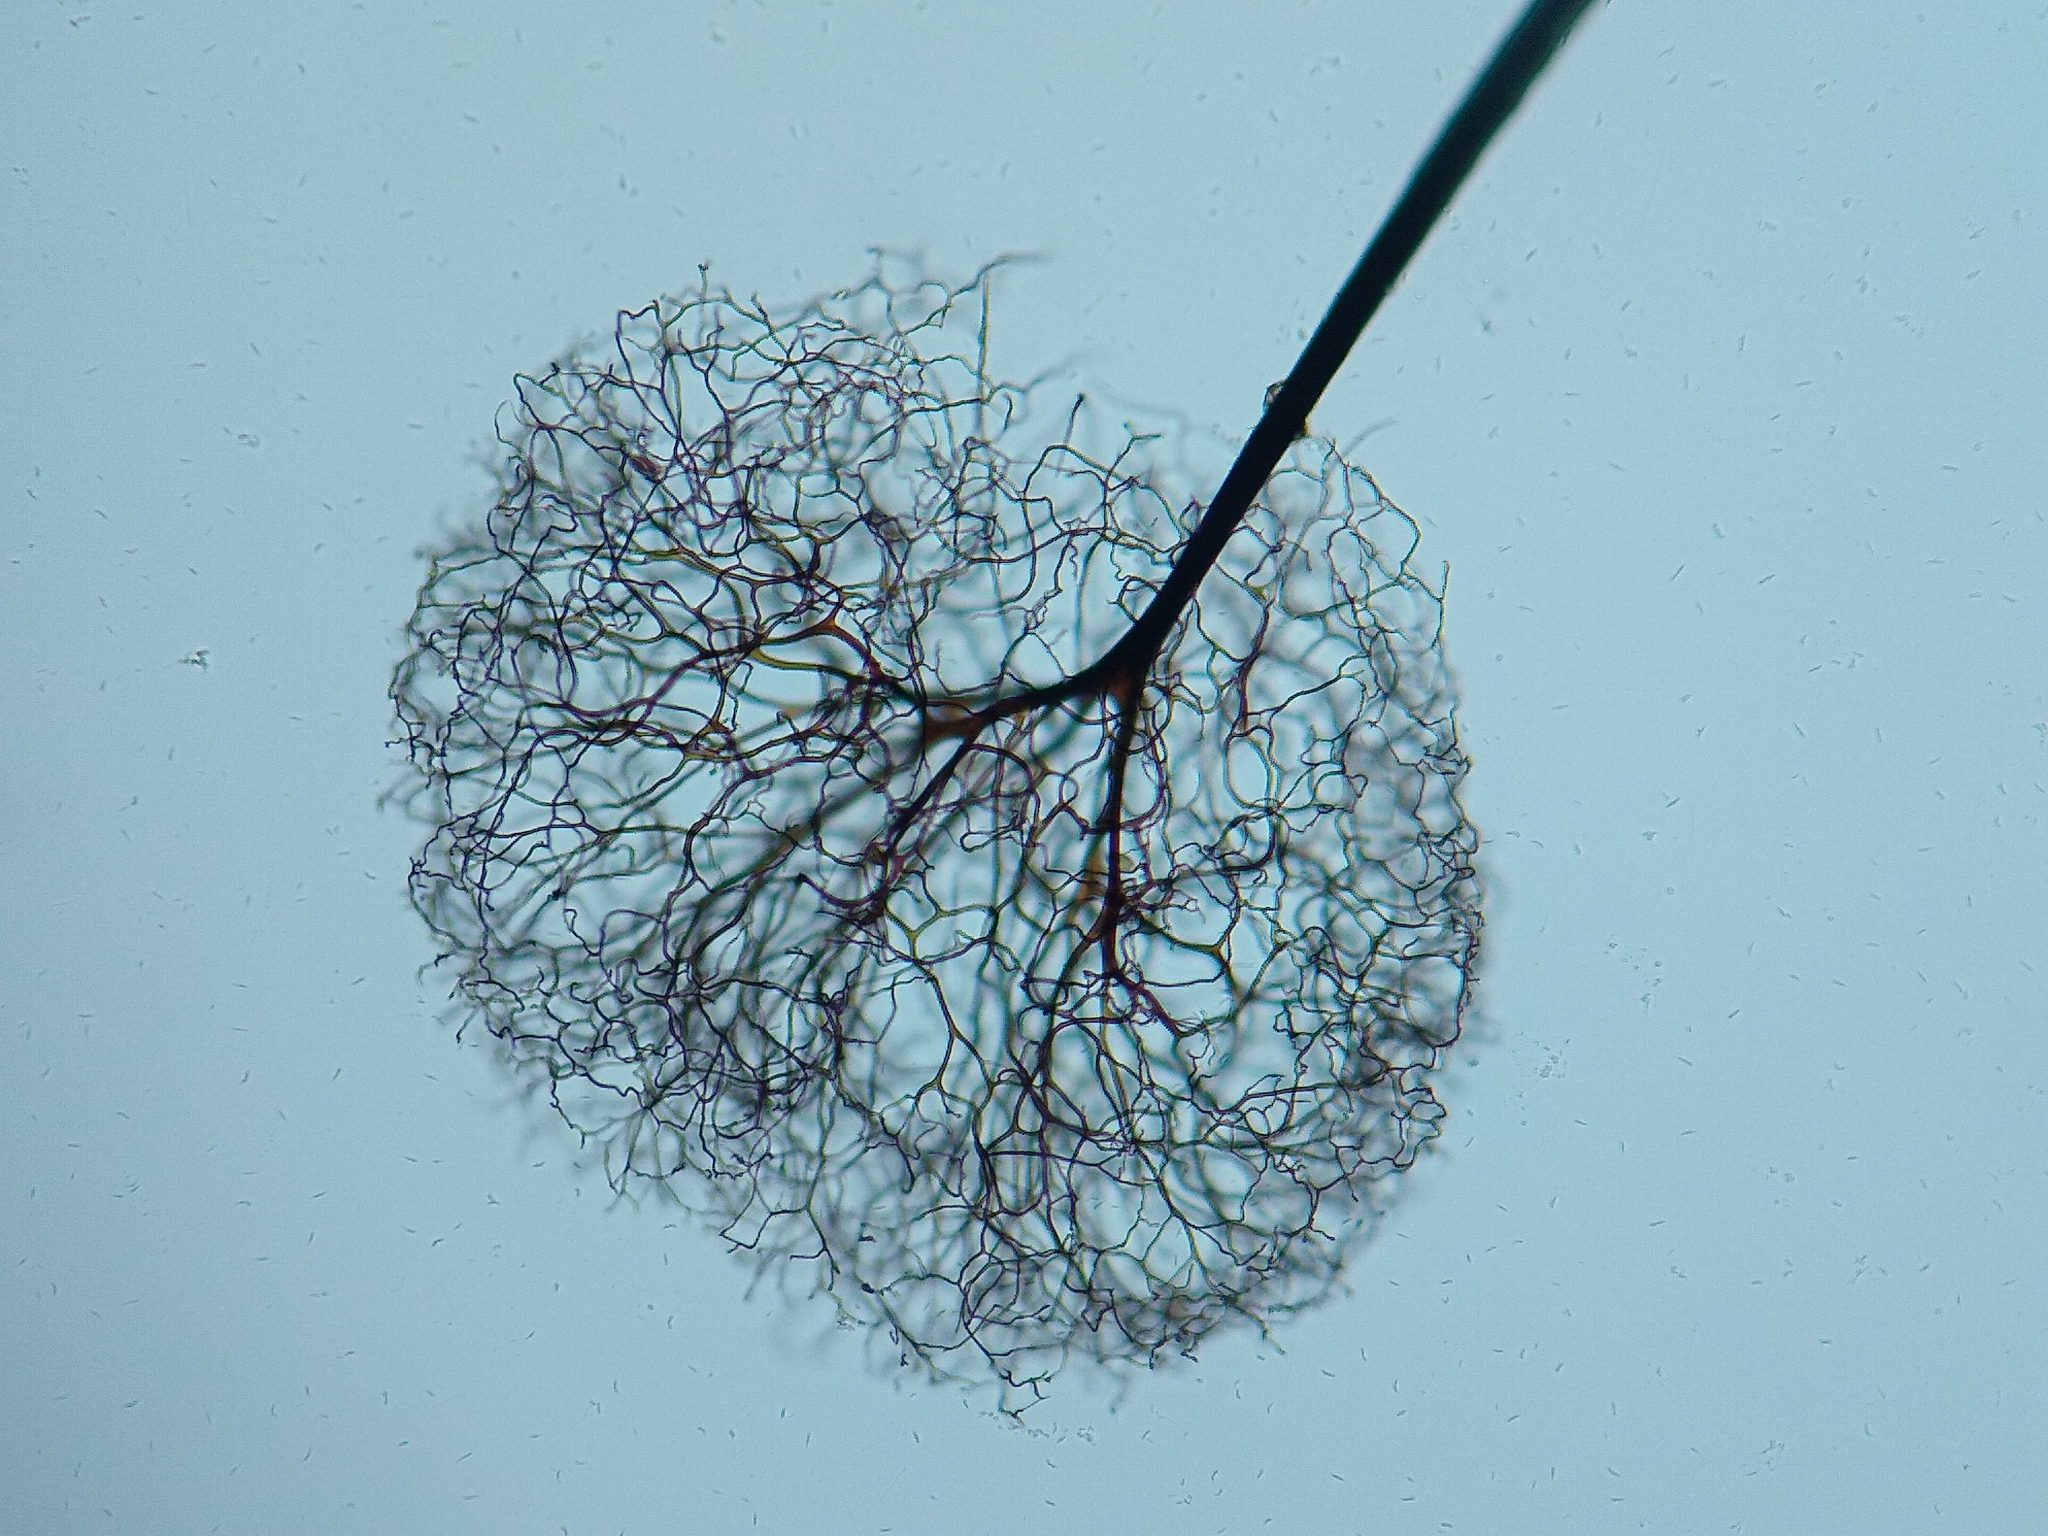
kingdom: Protozoa
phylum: Mycetozoa
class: Myxomycetes
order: Stemonitidales
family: Stemonitidaceae
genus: Comatricha
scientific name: Comatricha elegans
